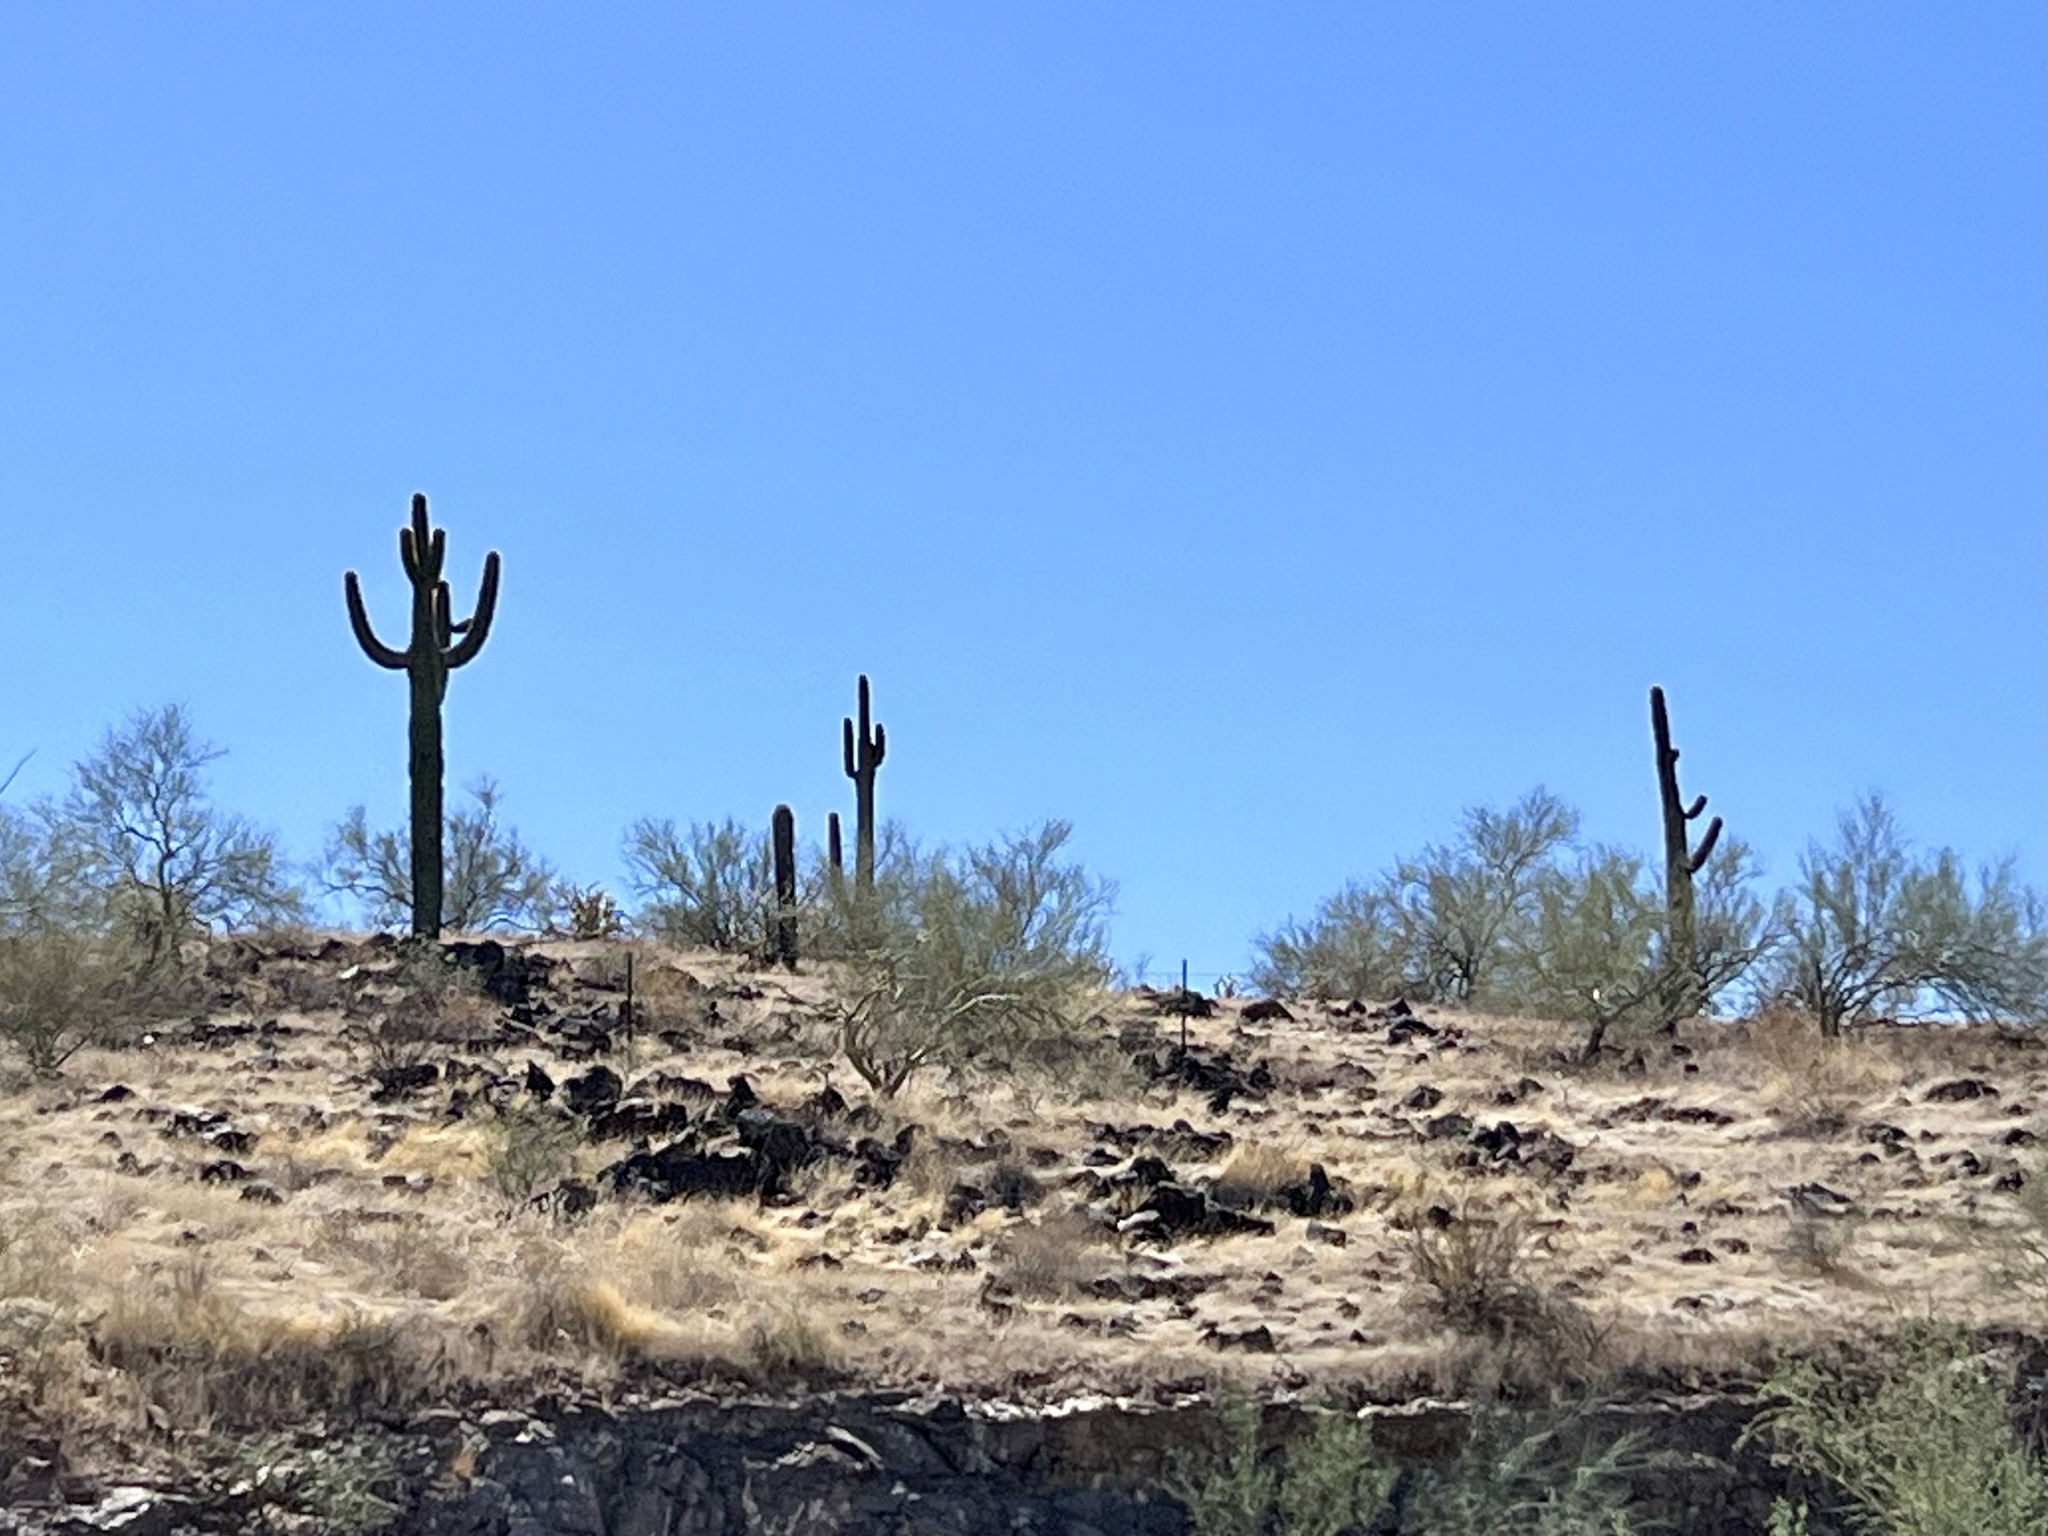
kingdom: Plantae
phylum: Tracheophyta
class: Magnoliopsida
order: Caryophyllales
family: Cactaceae
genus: Carnegiea
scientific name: Carnegiea gigantea
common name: Saguaro
